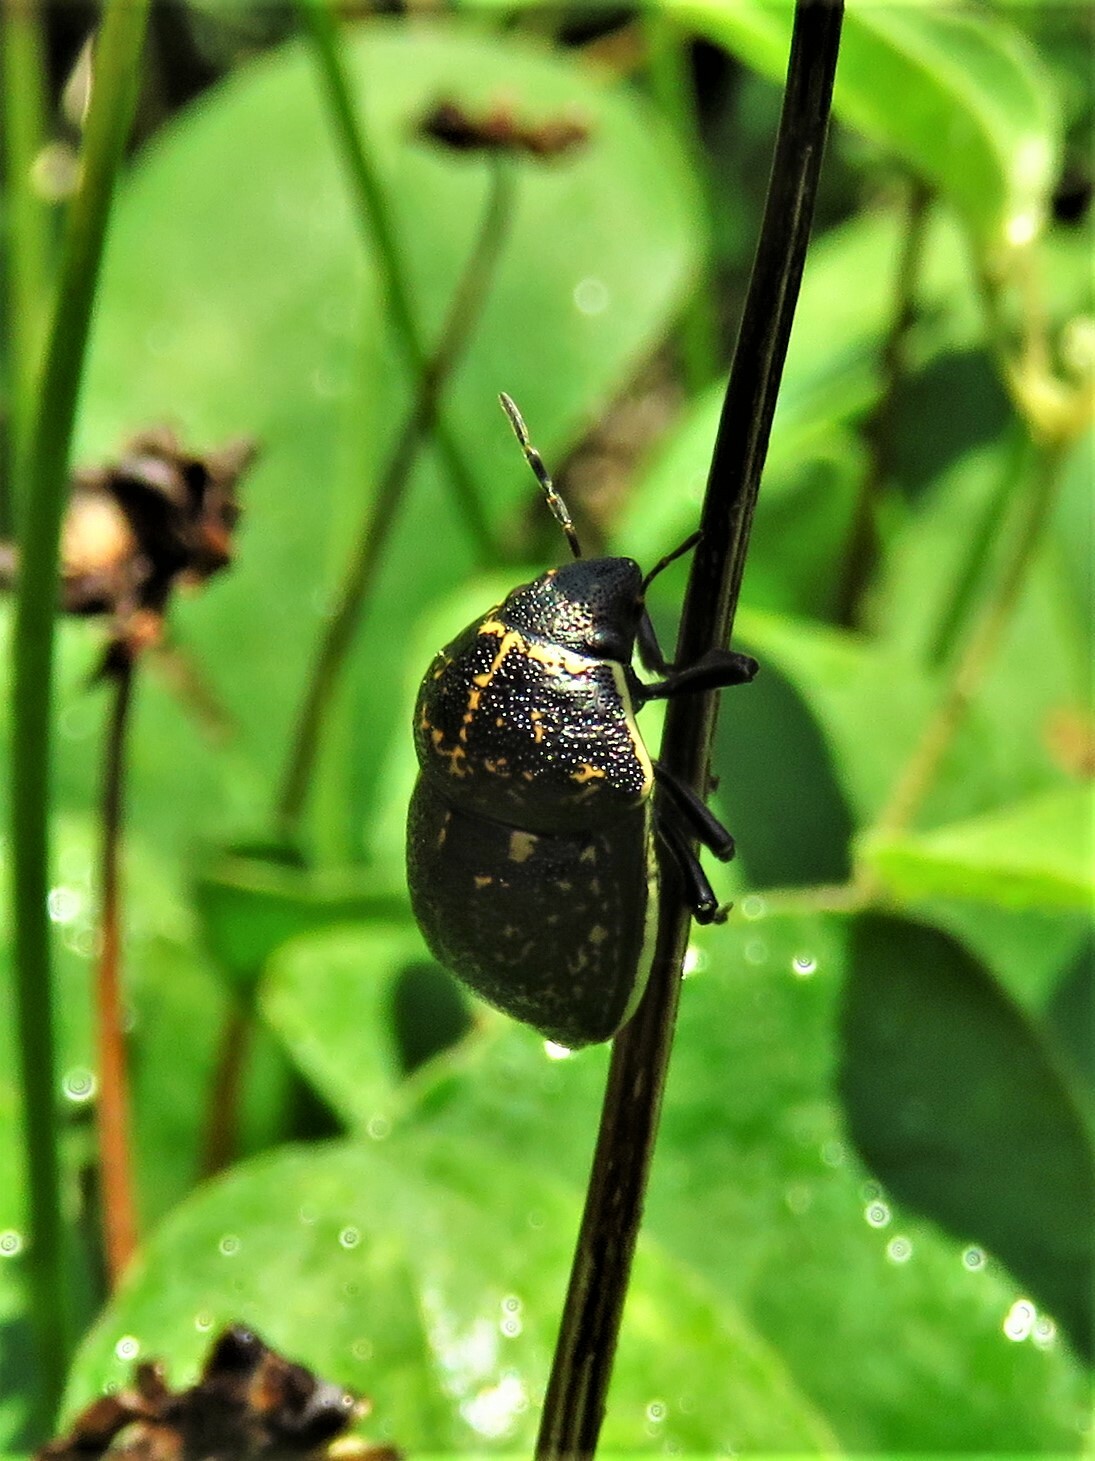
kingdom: Animalia
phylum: Arthropoda
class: Insecta
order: Hemiptera
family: Scutelleridae
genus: Orsilochides
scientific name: Orsilochides guttata
